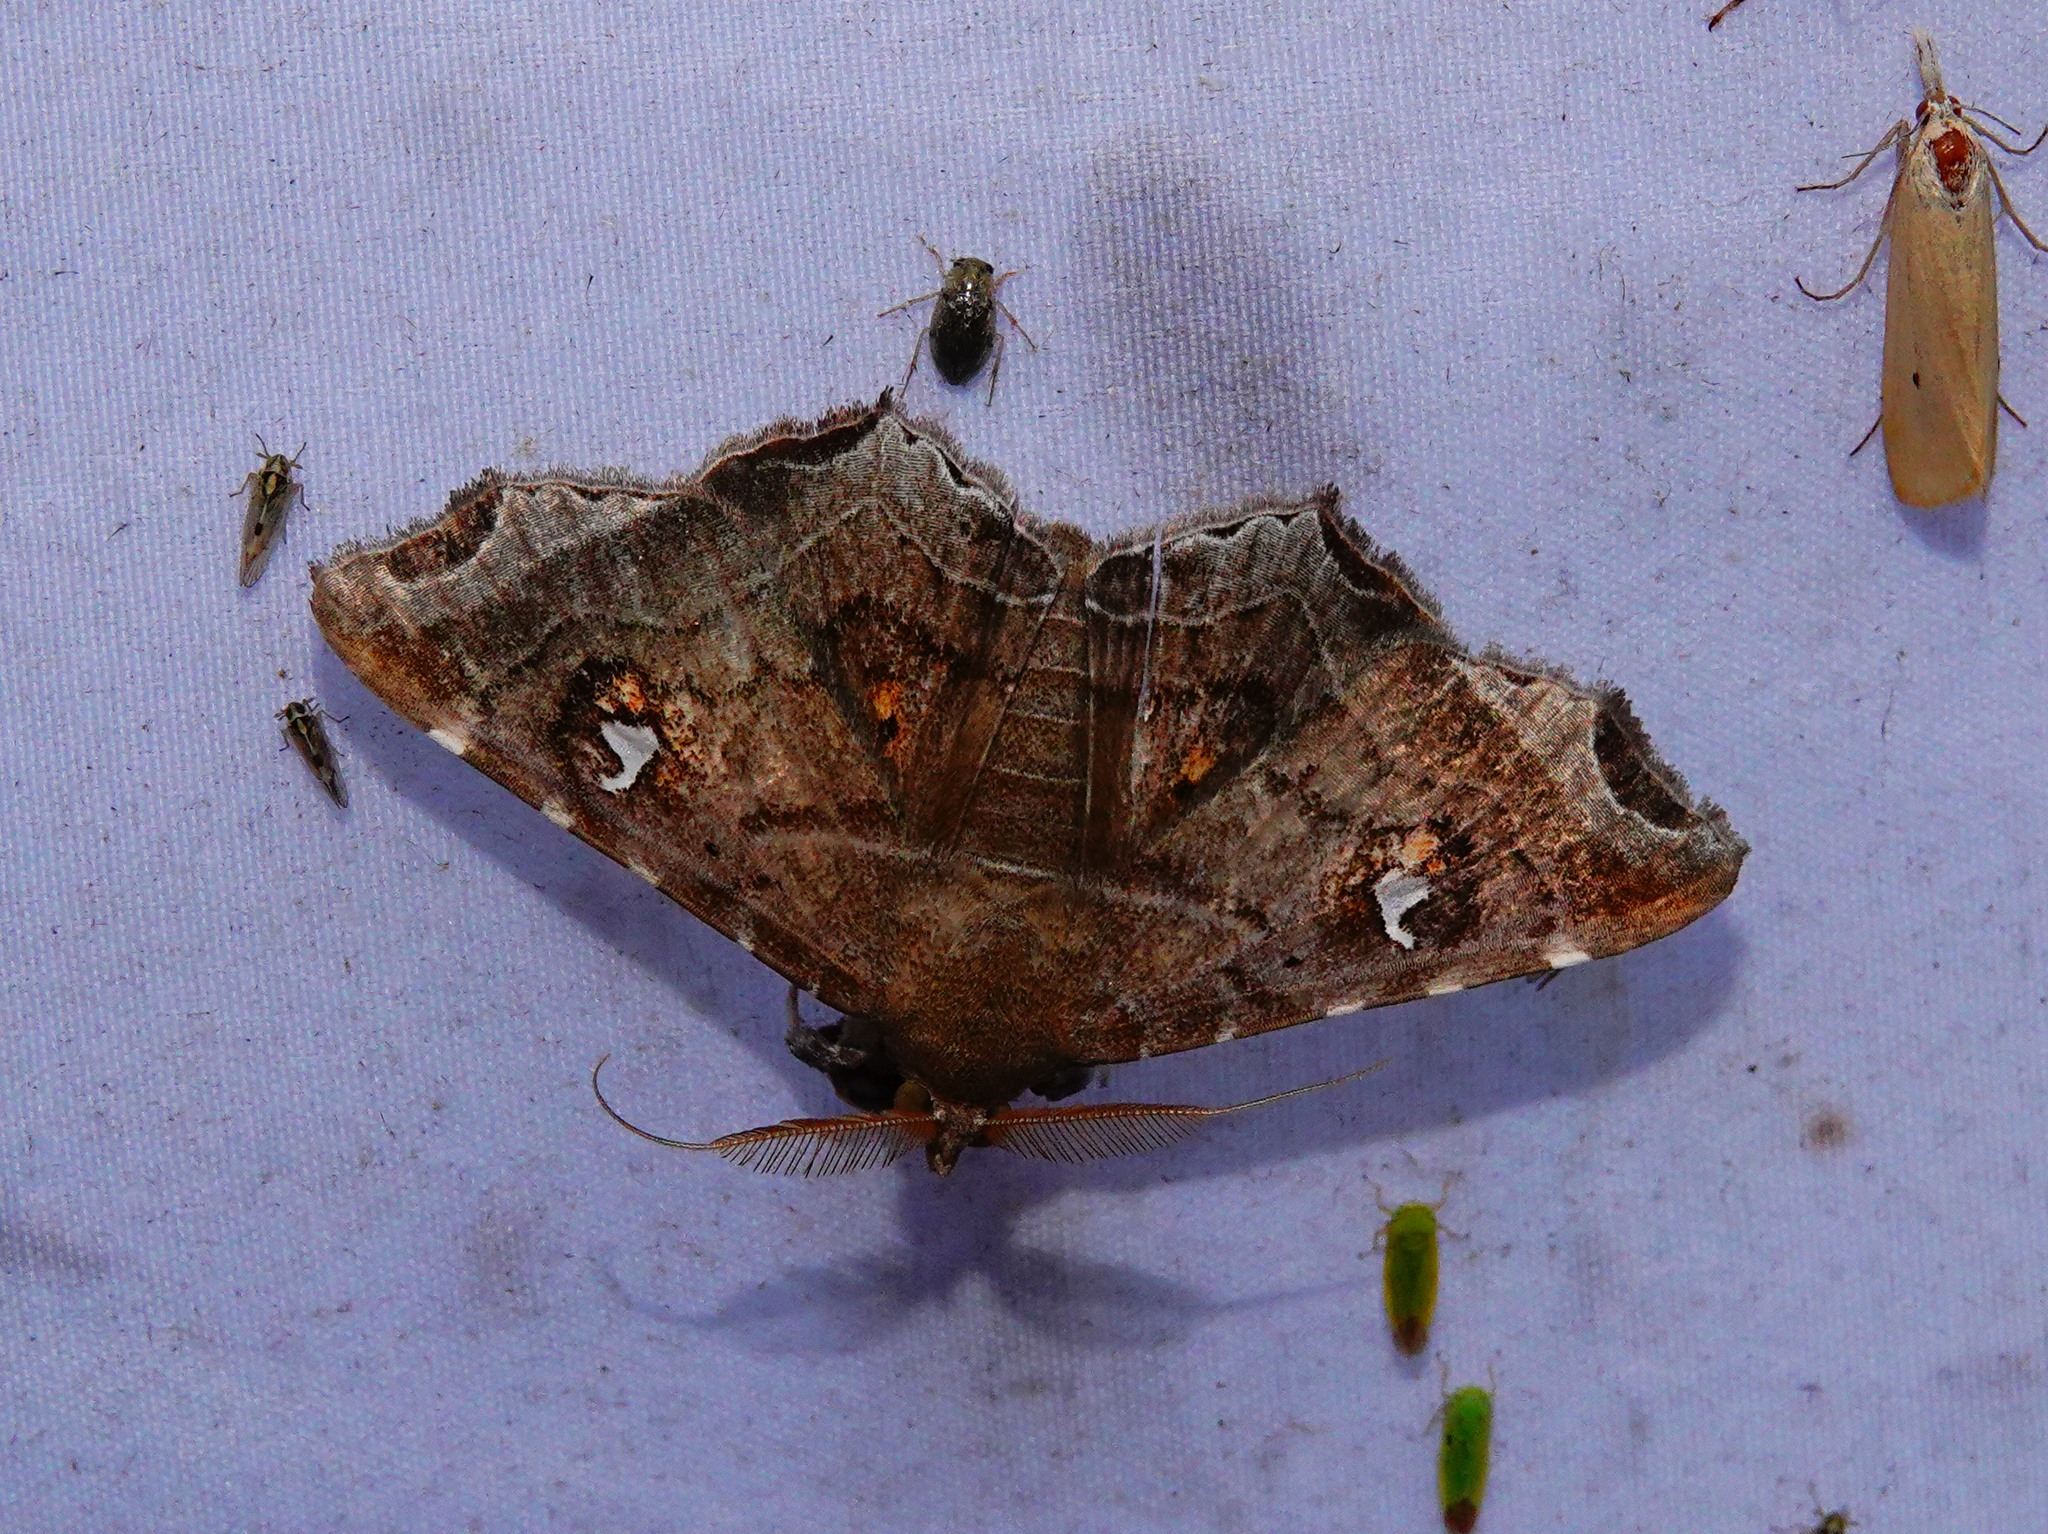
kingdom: Animalia
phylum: Arthropoda
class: Insecta
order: Lepidoptera
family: Erebidae
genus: Episparis
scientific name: Episparis liturata
